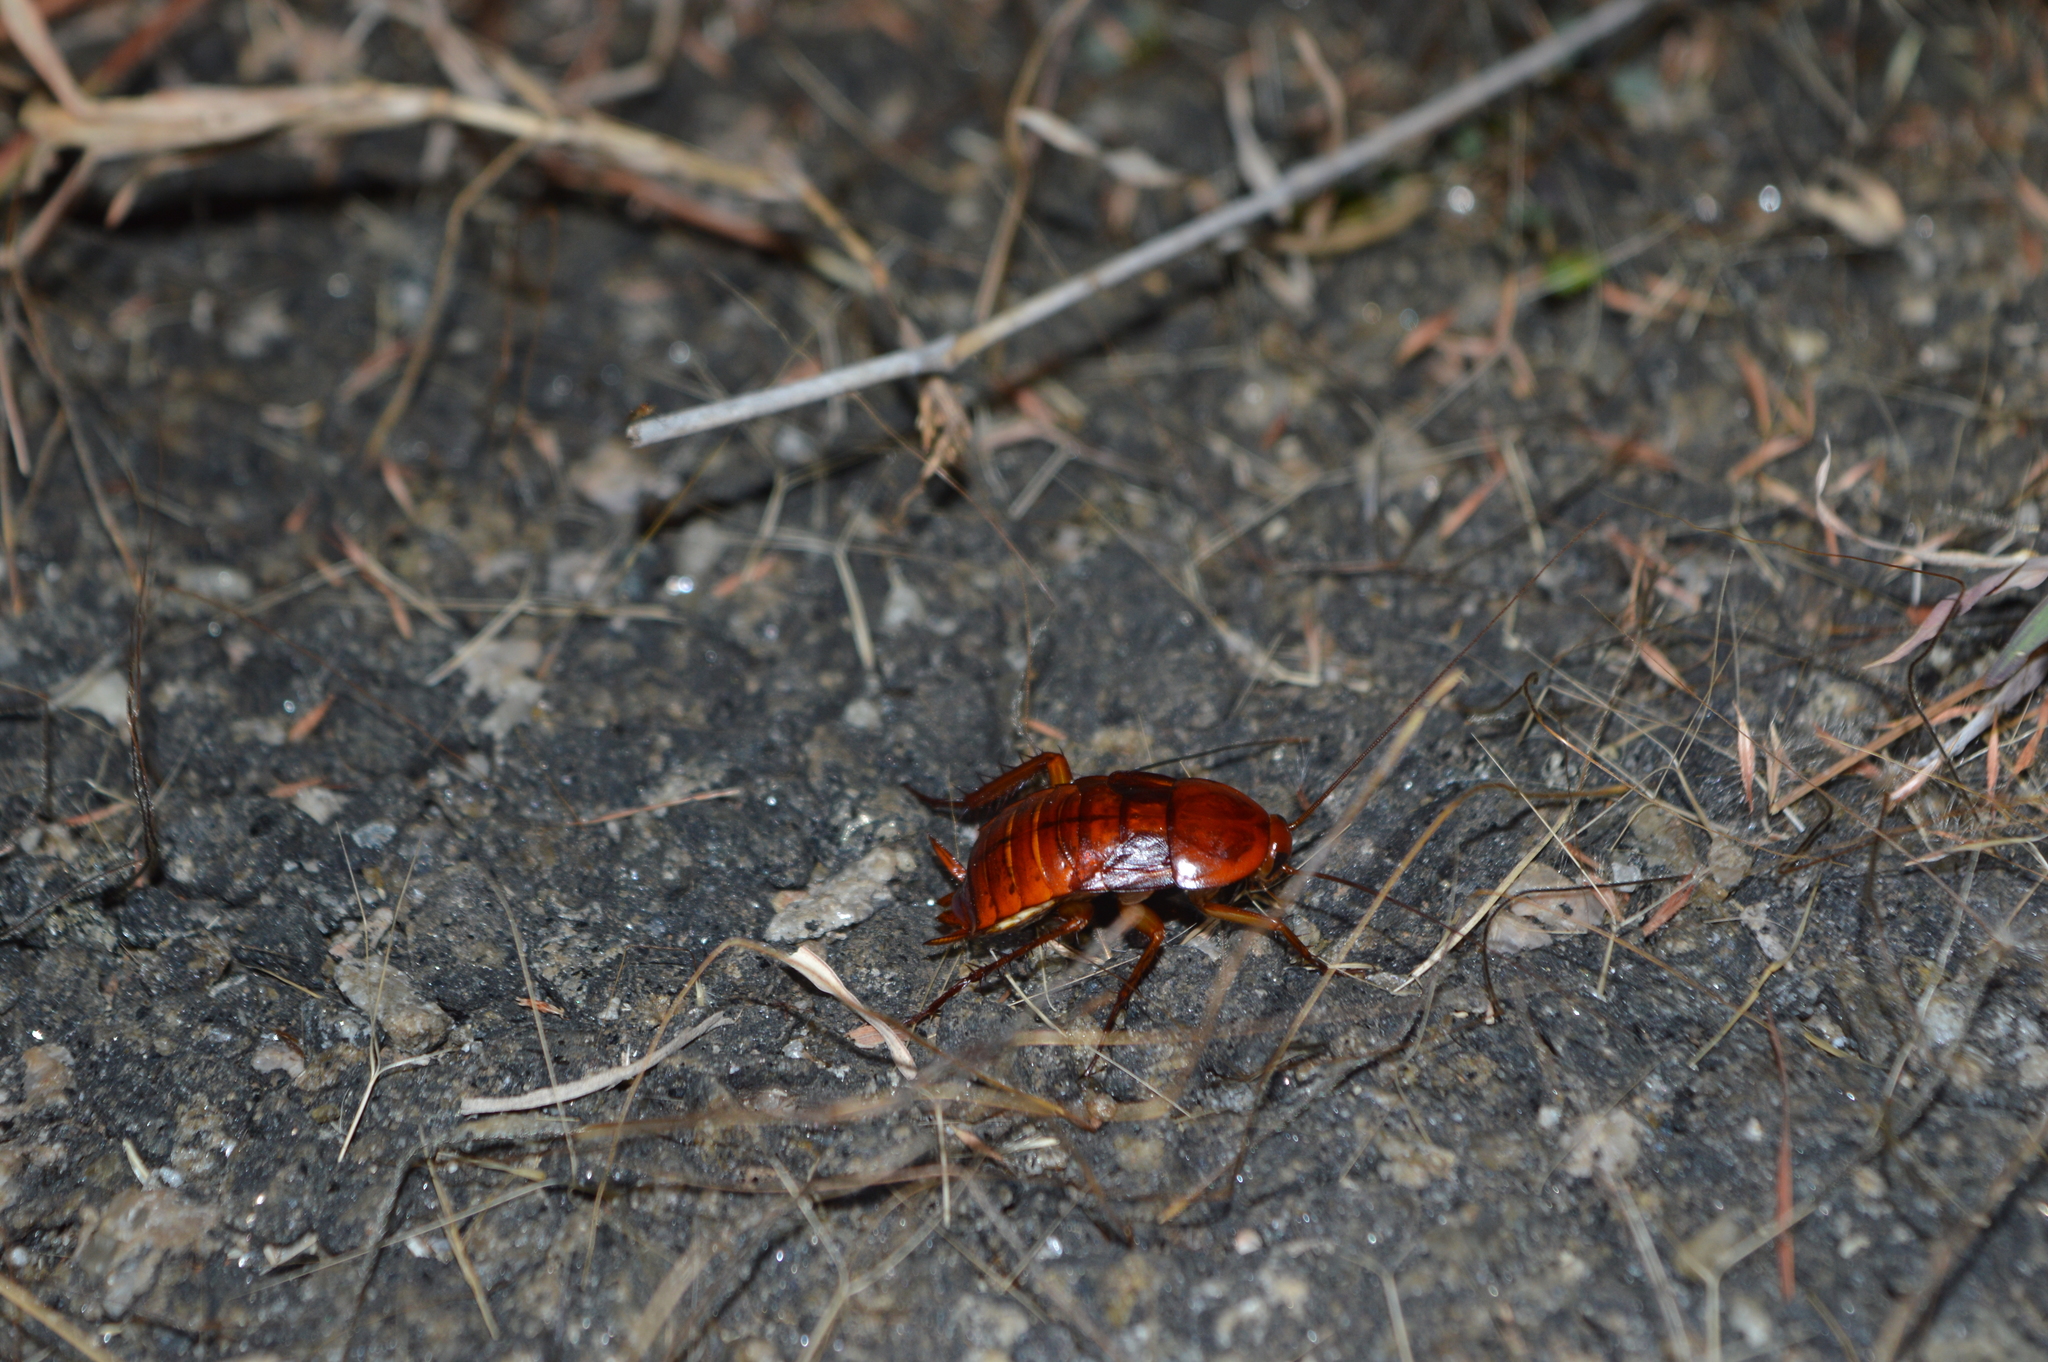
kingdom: Animalia
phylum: Arthropoda
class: Insecta
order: Blattodea
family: Blattidae
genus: Periplaneta
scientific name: Periplaneta americana
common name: American cockroach
